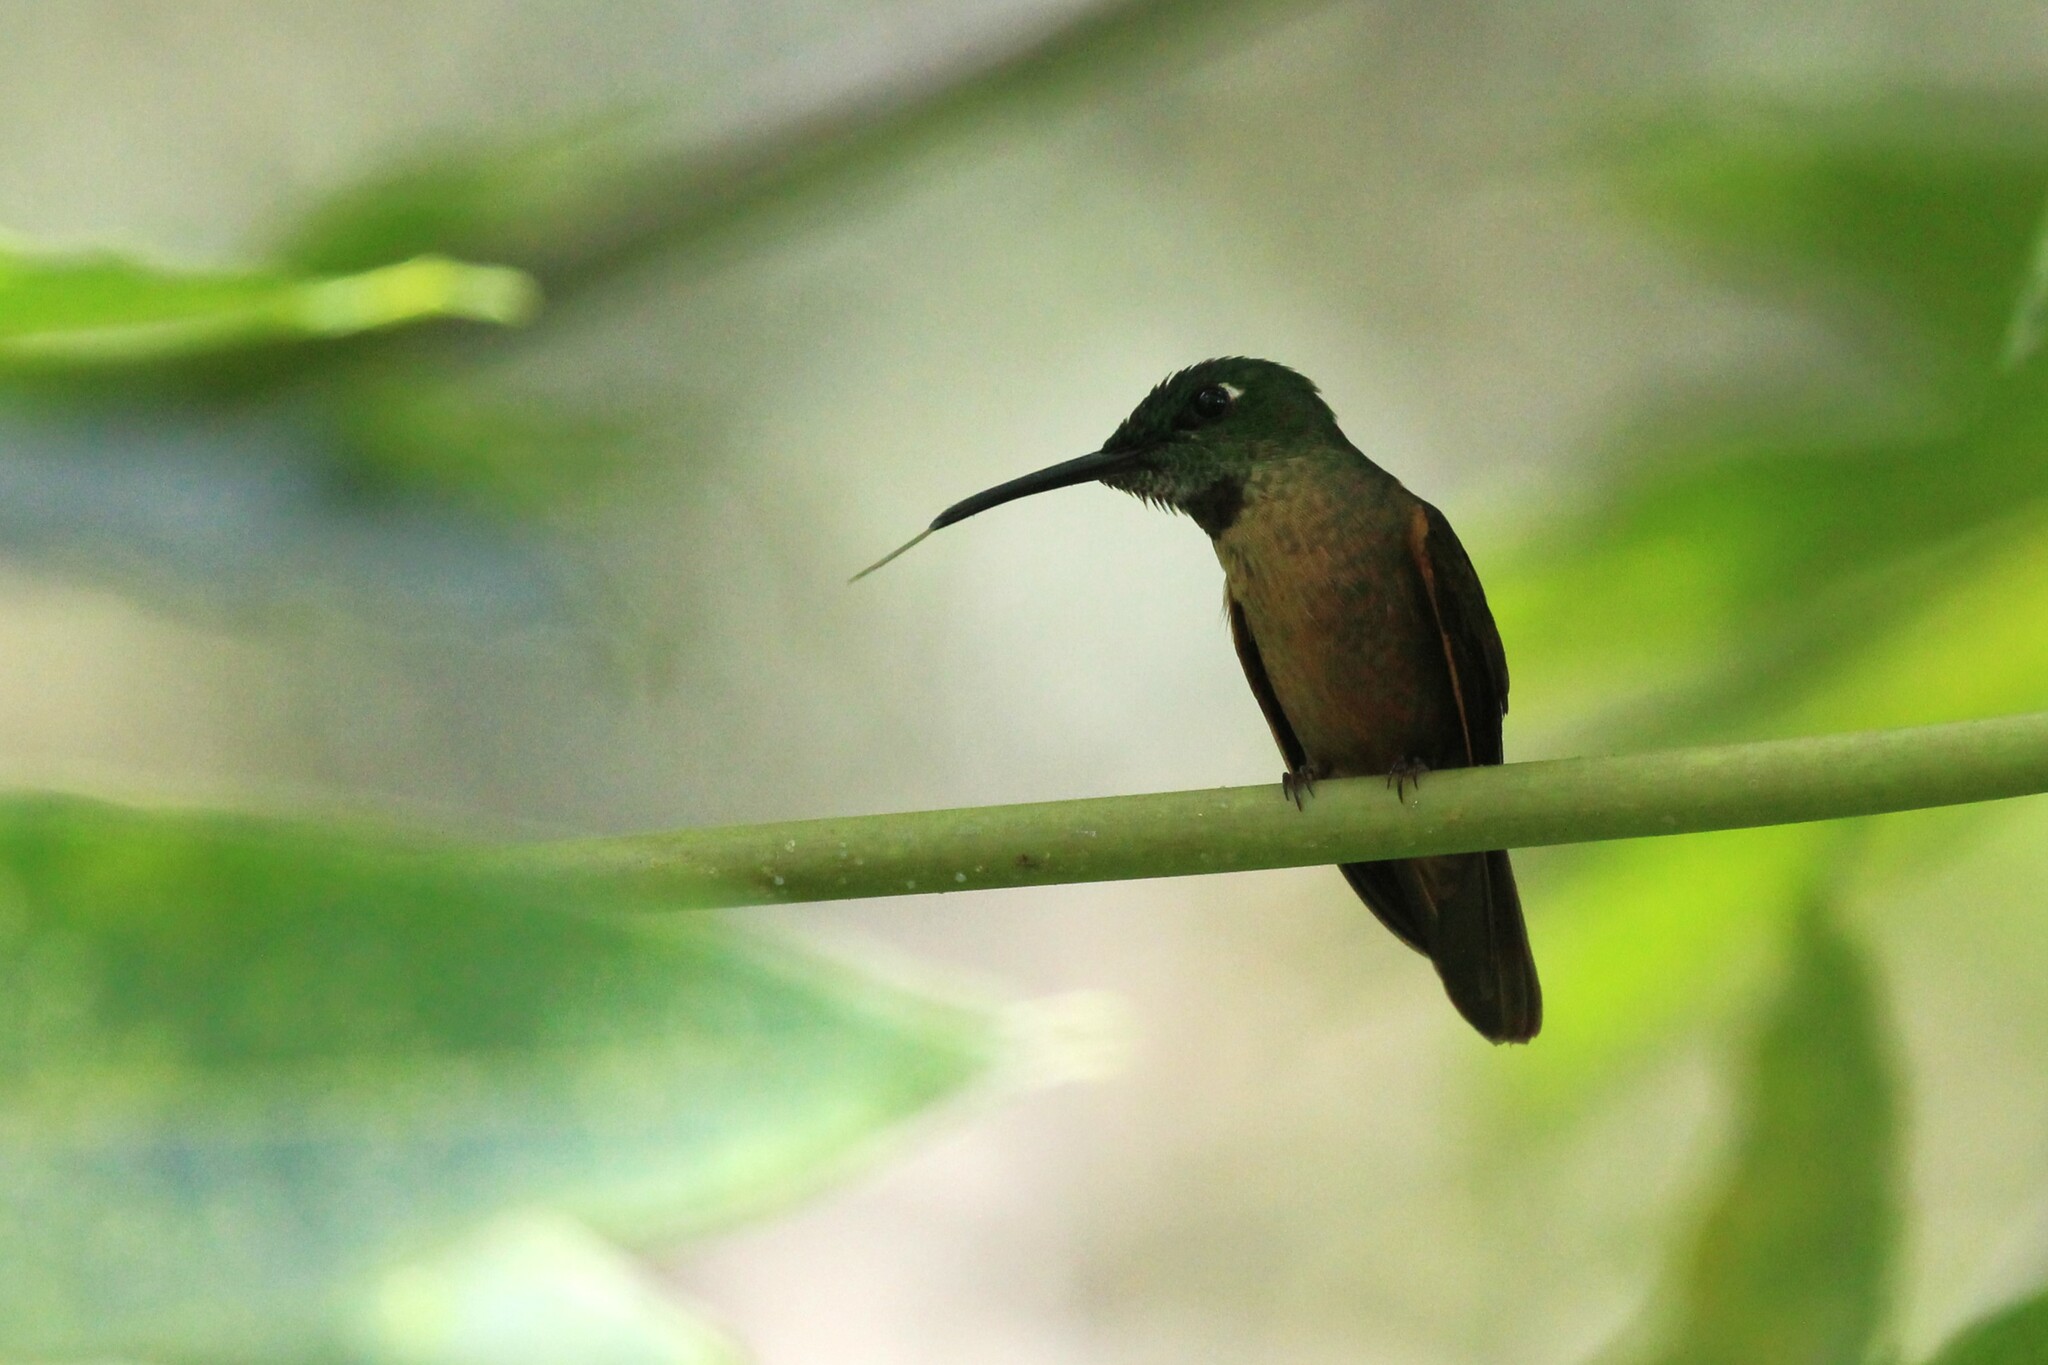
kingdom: Animalia
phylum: Chordata
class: Aves
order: Apodiformes
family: Trochilidae
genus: Heliodoxa
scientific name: Heliodoxa rubinoides
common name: Fawn-breasted brilliant
